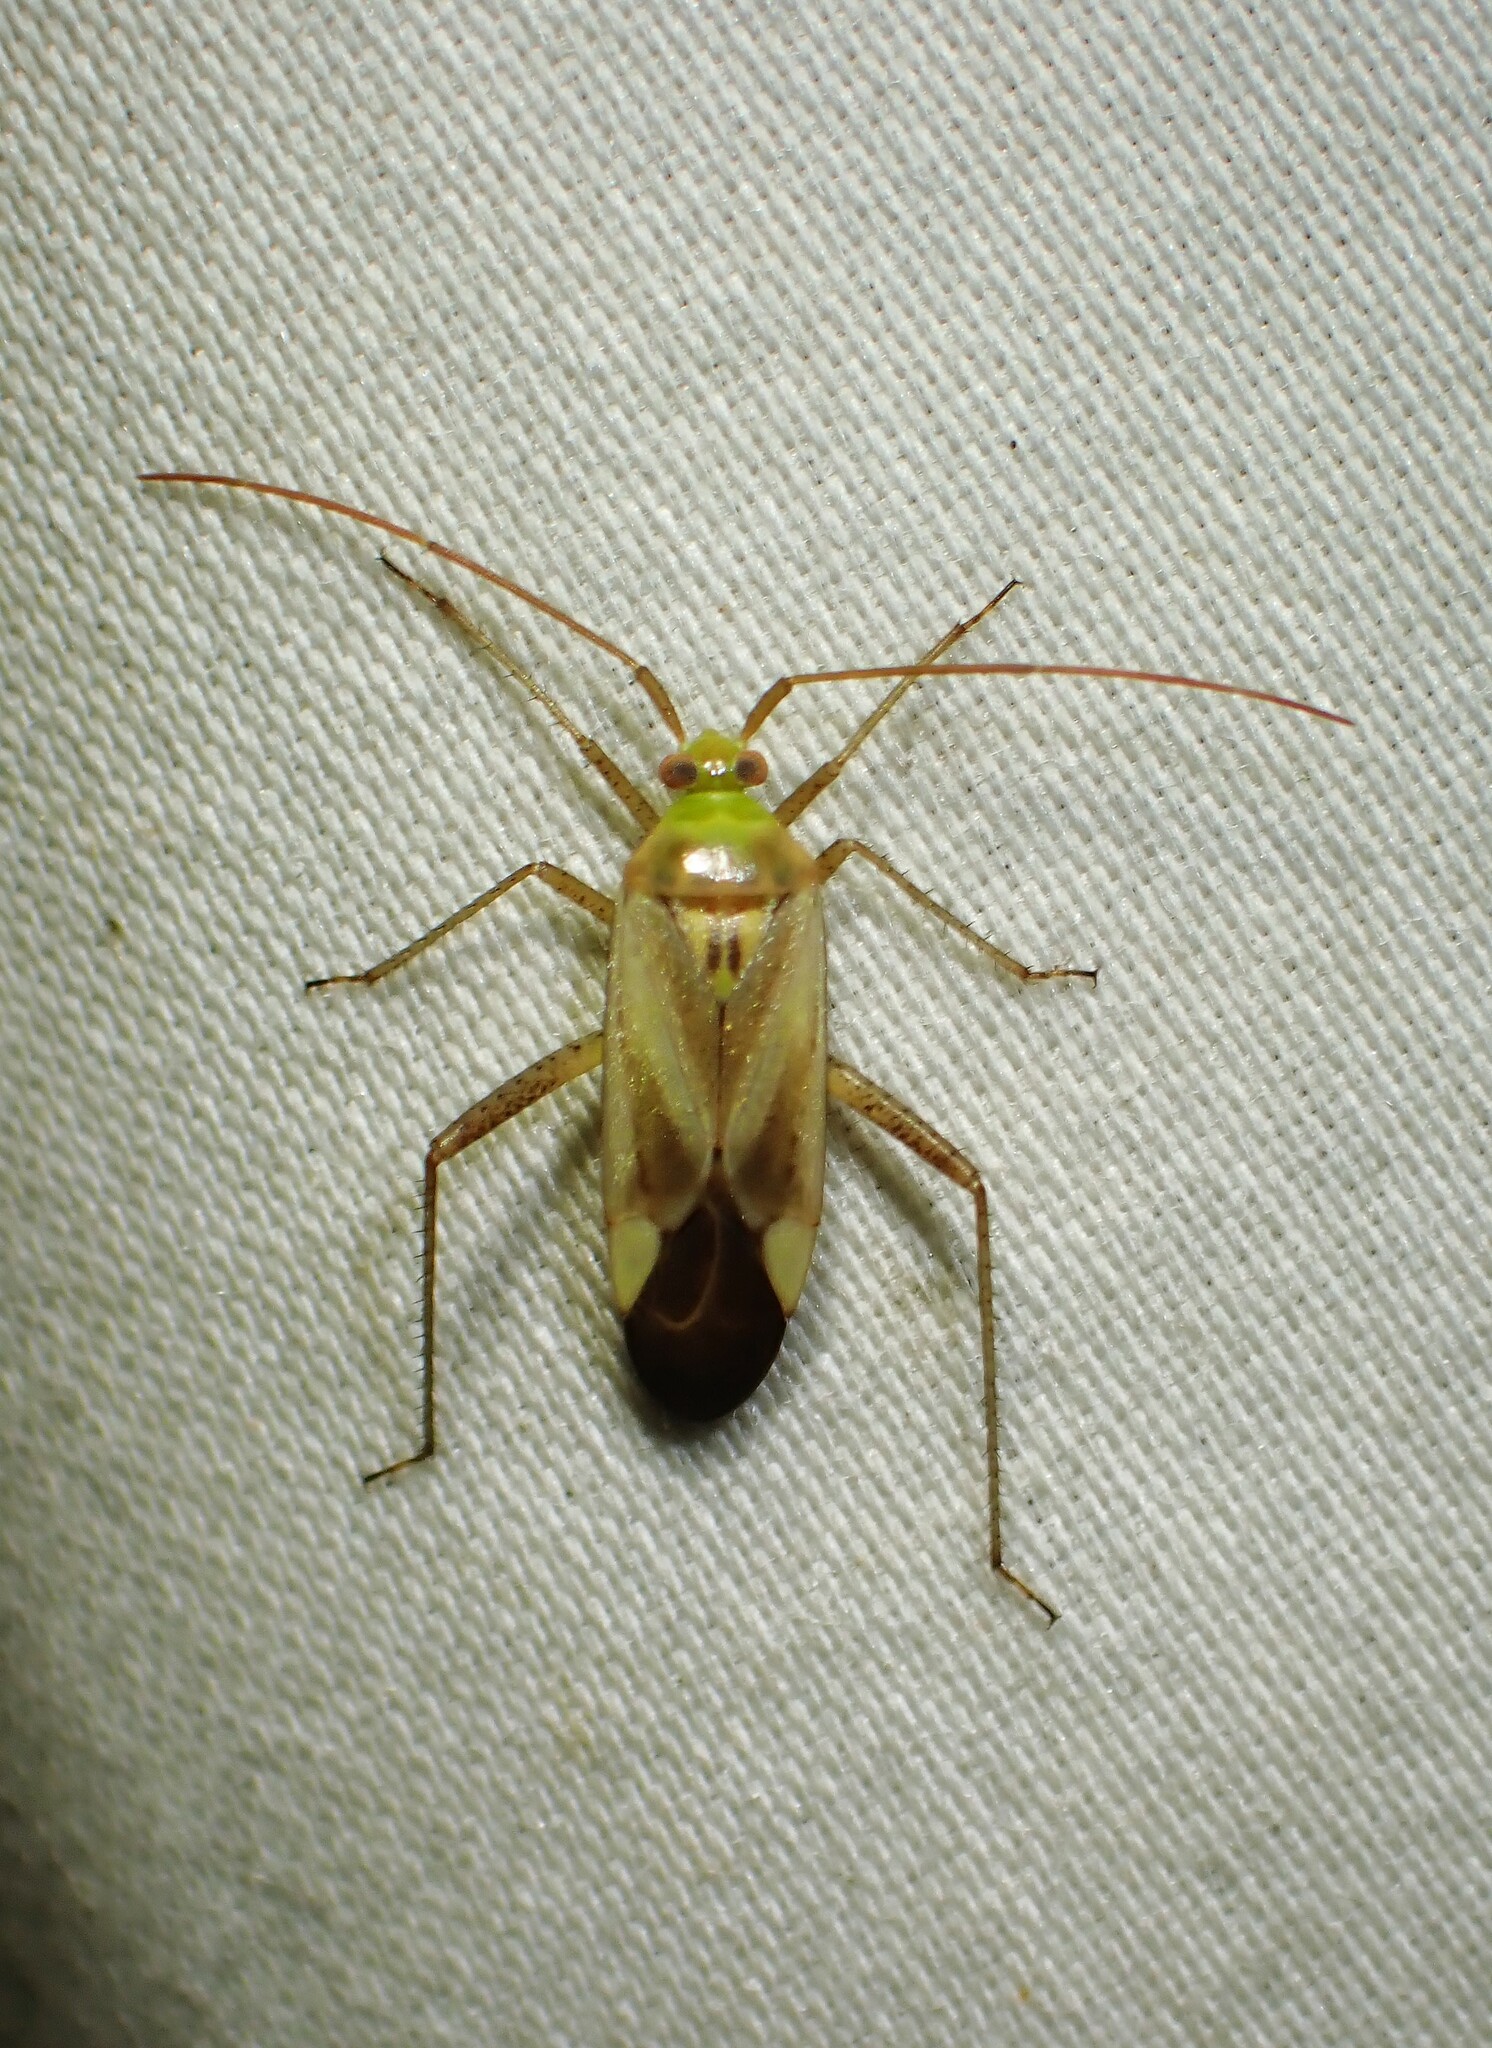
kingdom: Animalia
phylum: Arthropoda
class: Insecta
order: Hemiptera
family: Miridae
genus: Adelphocoris
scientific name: Adelphocoris lineolatus
